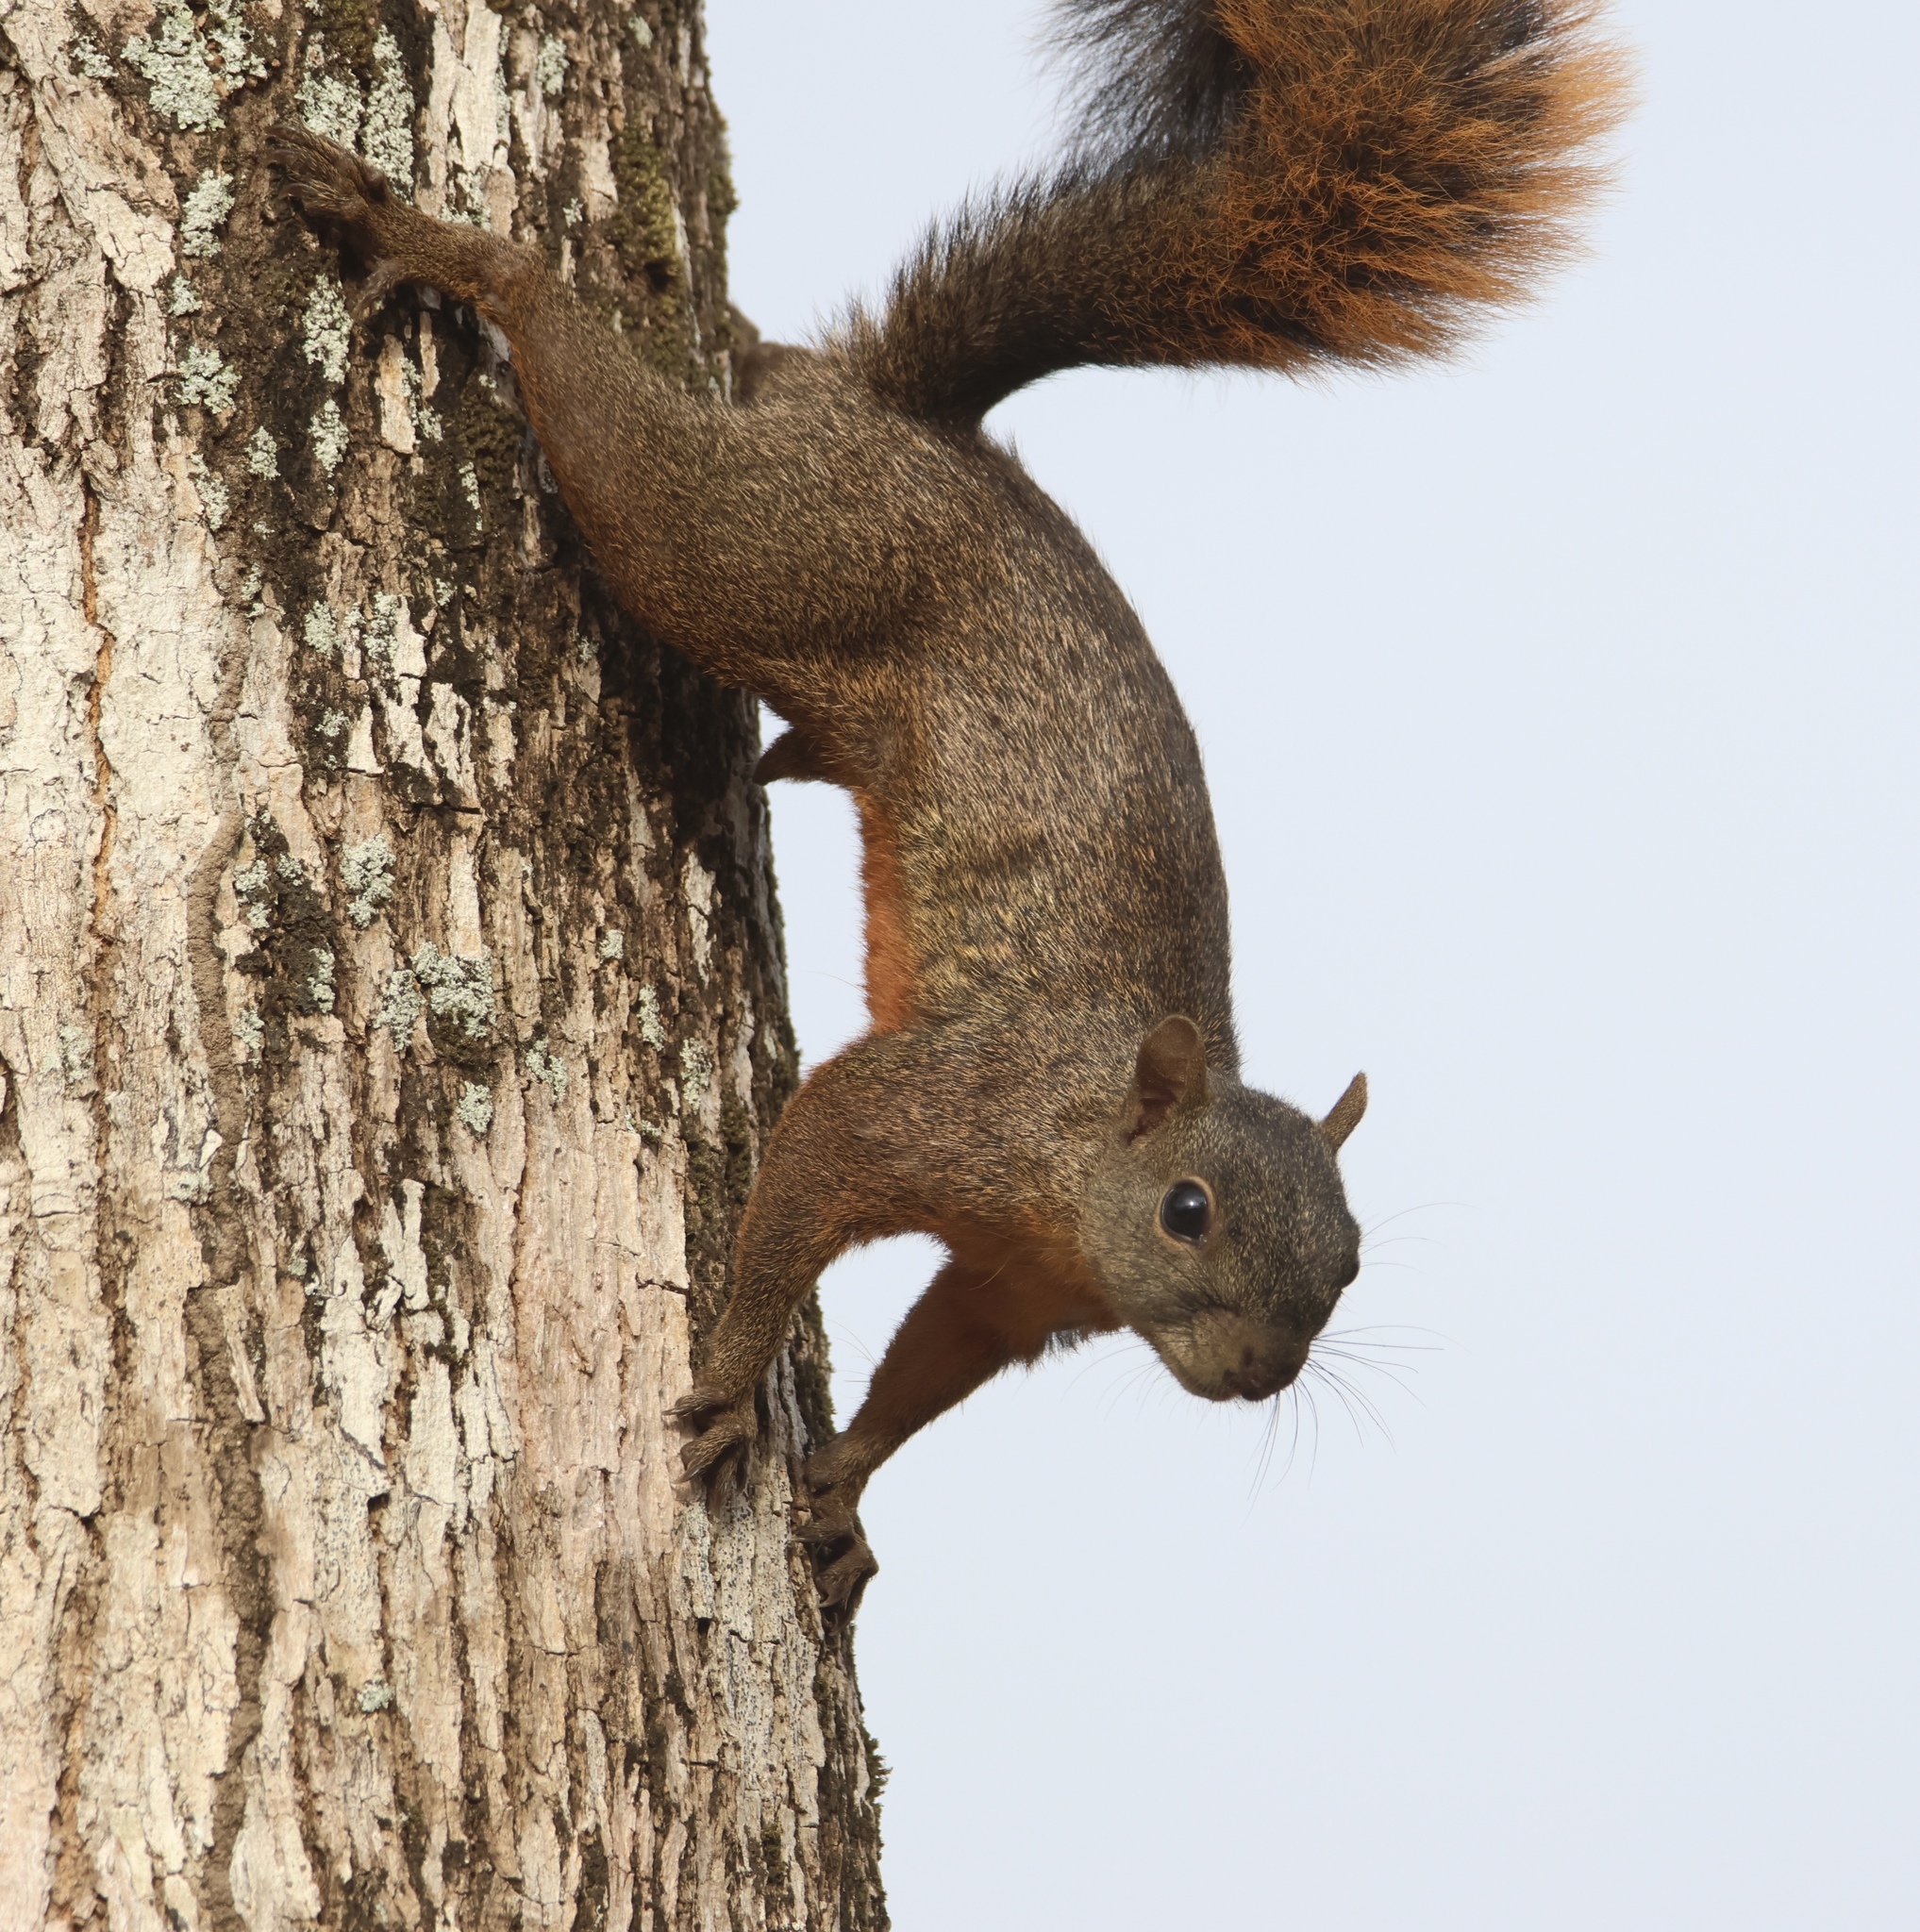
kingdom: Animalia
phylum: Chordata
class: Mammalia
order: Rodentia
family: Sciuridae
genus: Sciurus
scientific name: Sciurus granatensis
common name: Red-tailed squirrel
